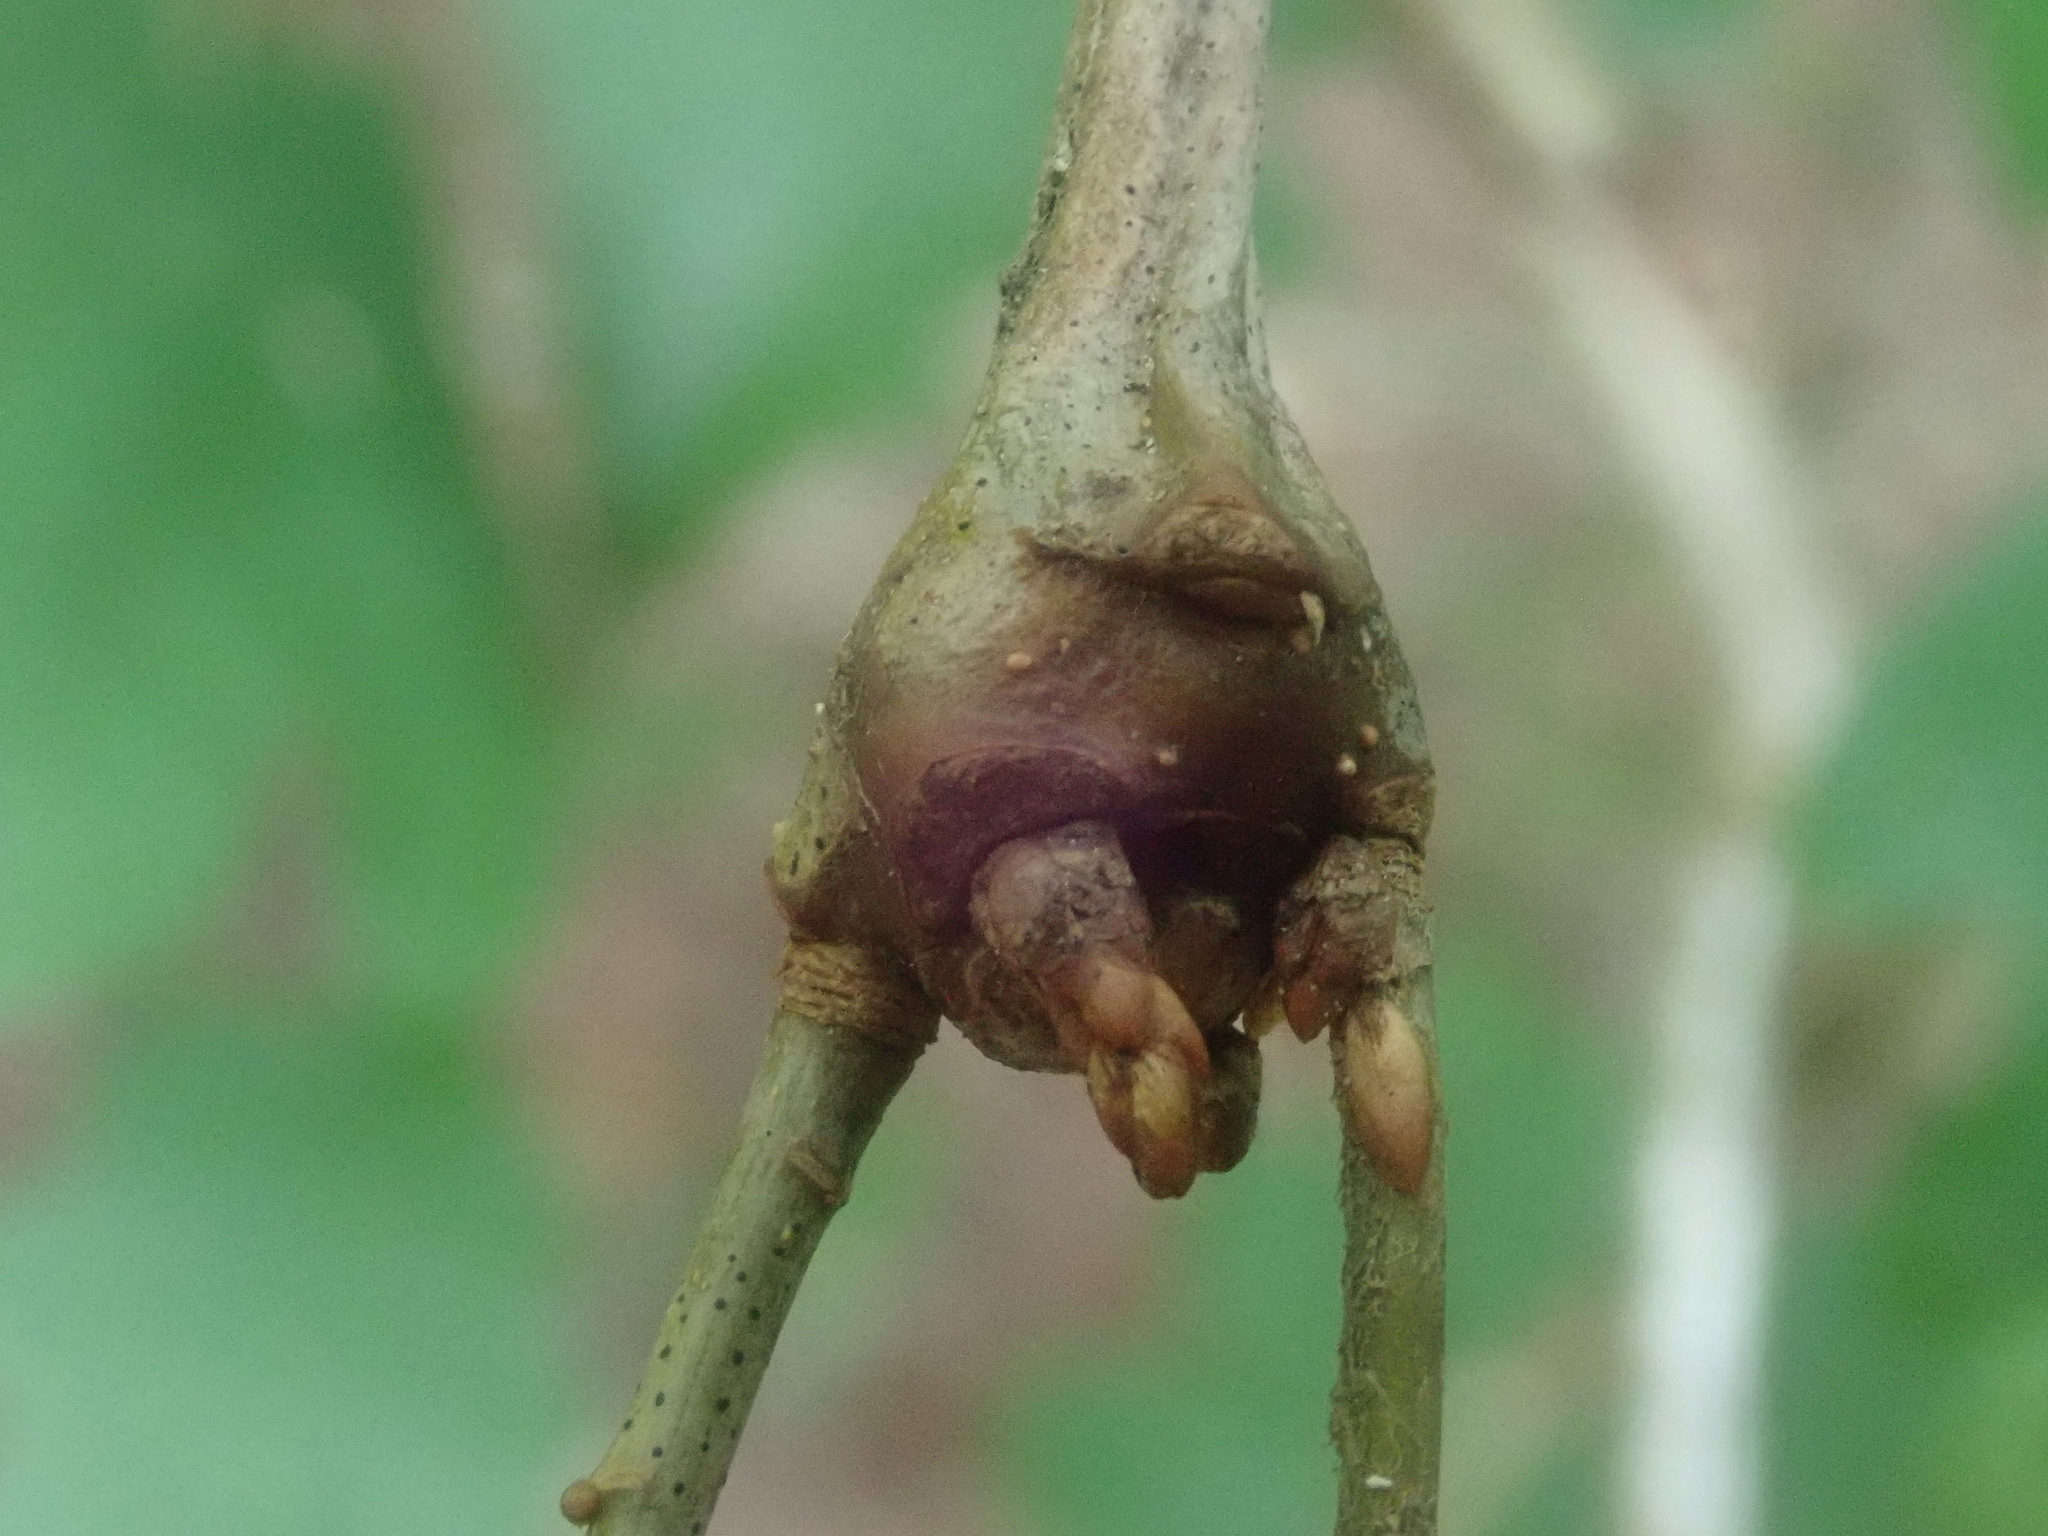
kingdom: Animalia
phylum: Arthropoda
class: Insecta
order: Hymenoptera
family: Cynipidae
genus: Callirhytis
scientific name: Callirhytis clavula
